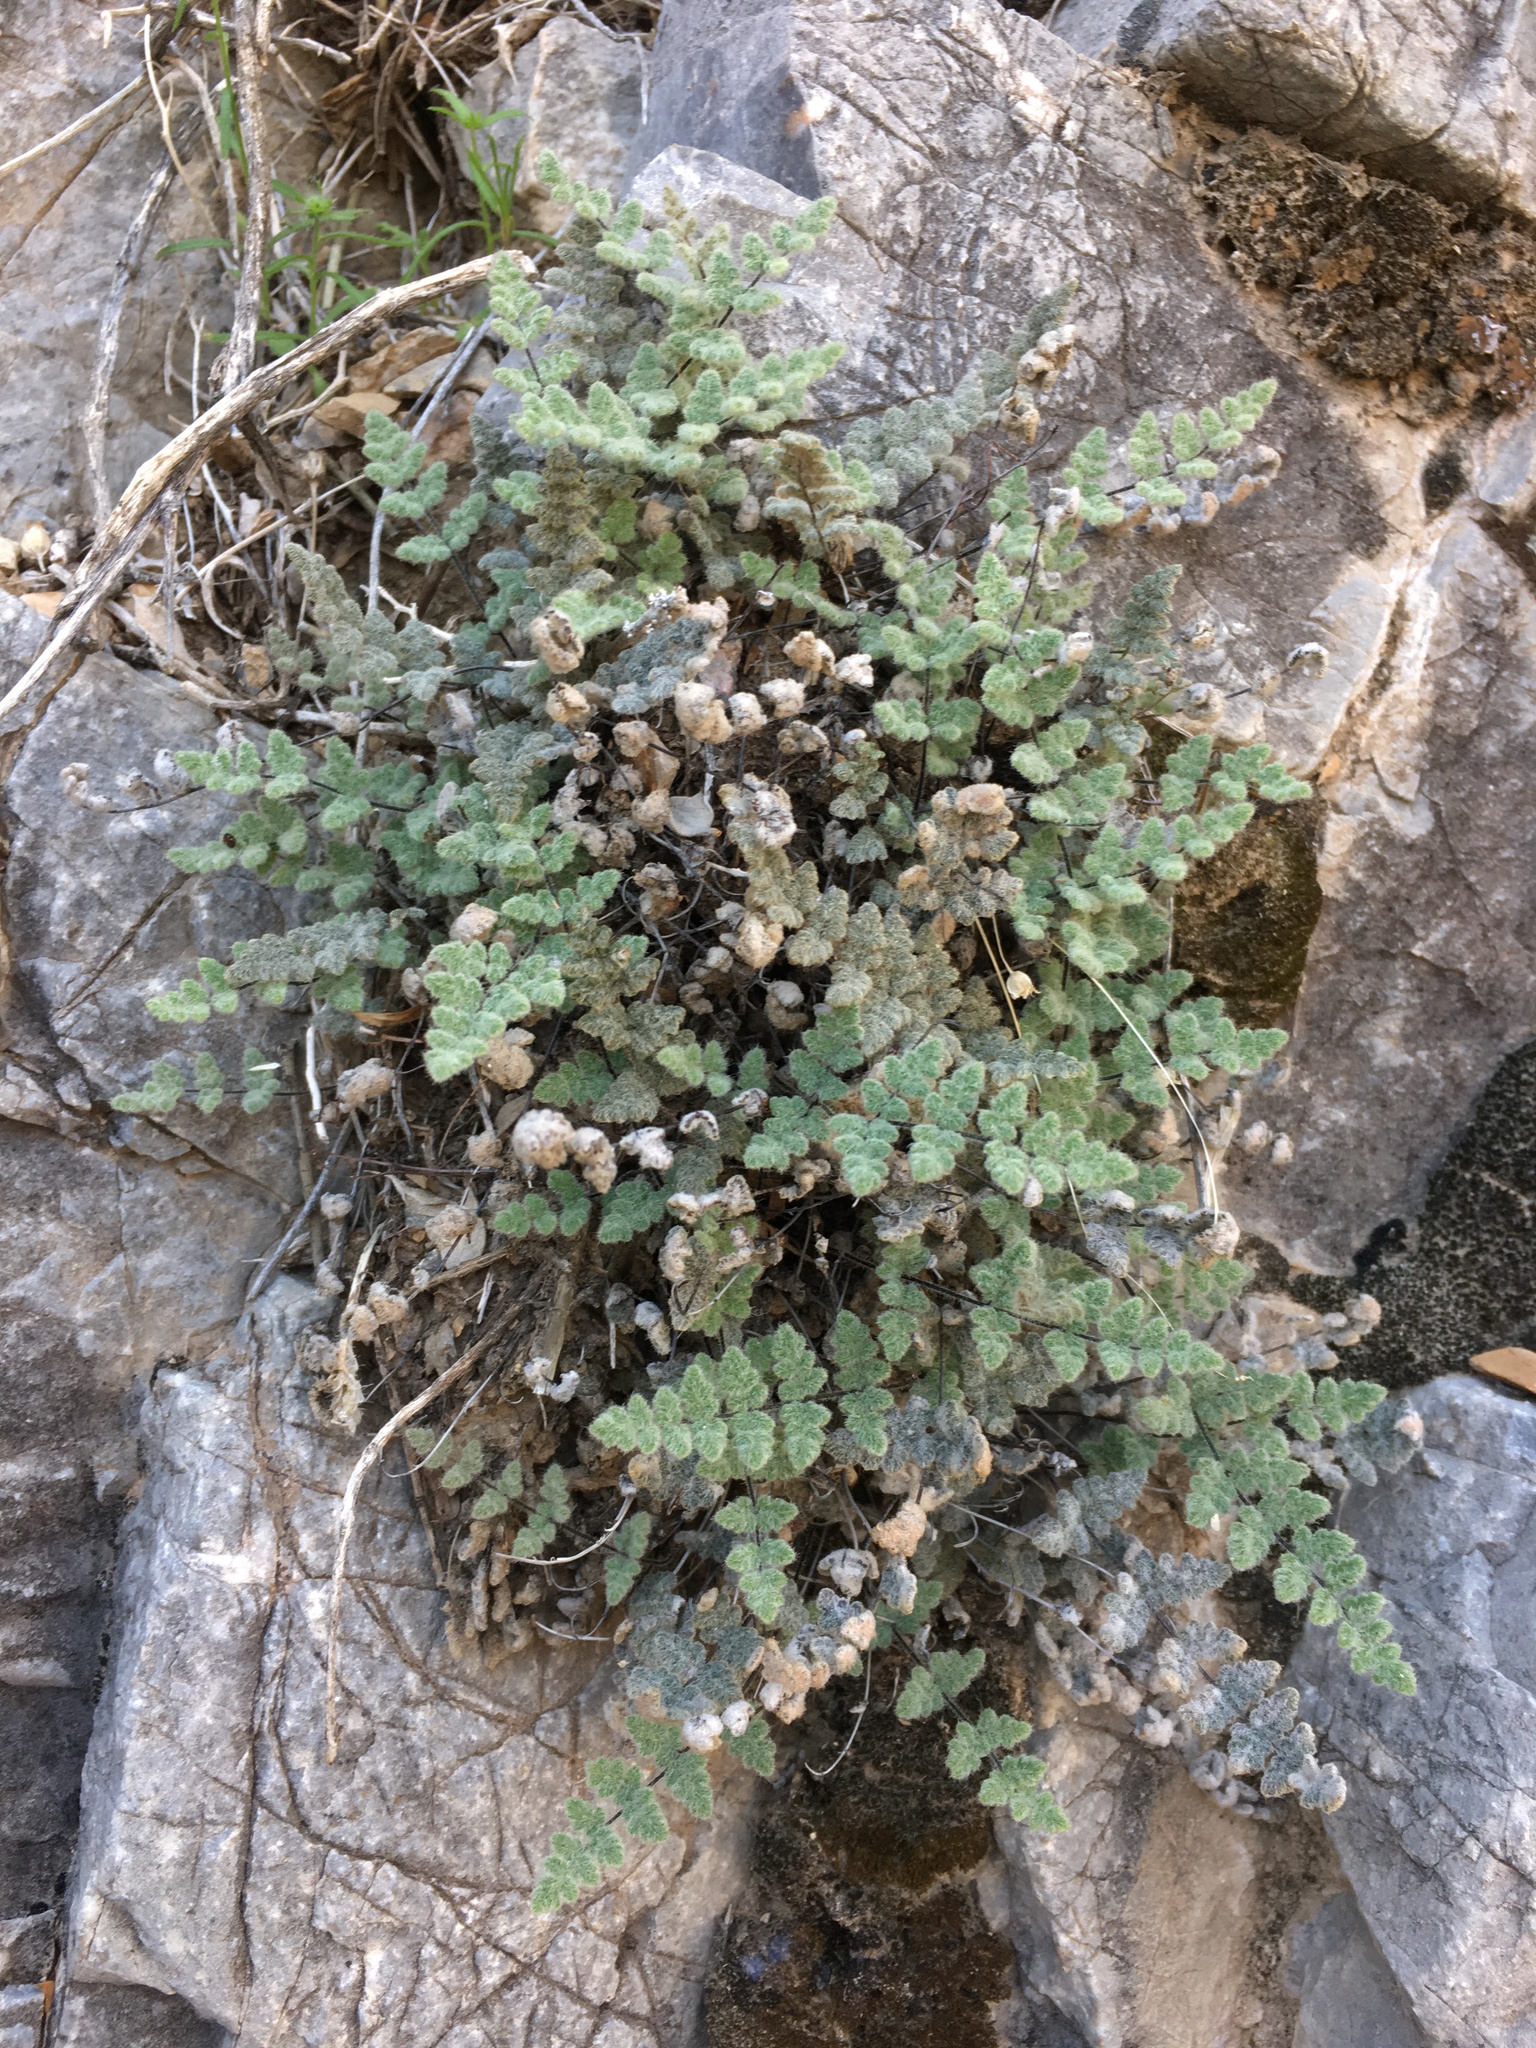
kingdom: Plantae
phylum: Tracheophyta
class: Polypodiopsida
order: Polypodiales
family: Pteridaceae
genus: Myriopteris
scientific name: Myriopteris parryi
